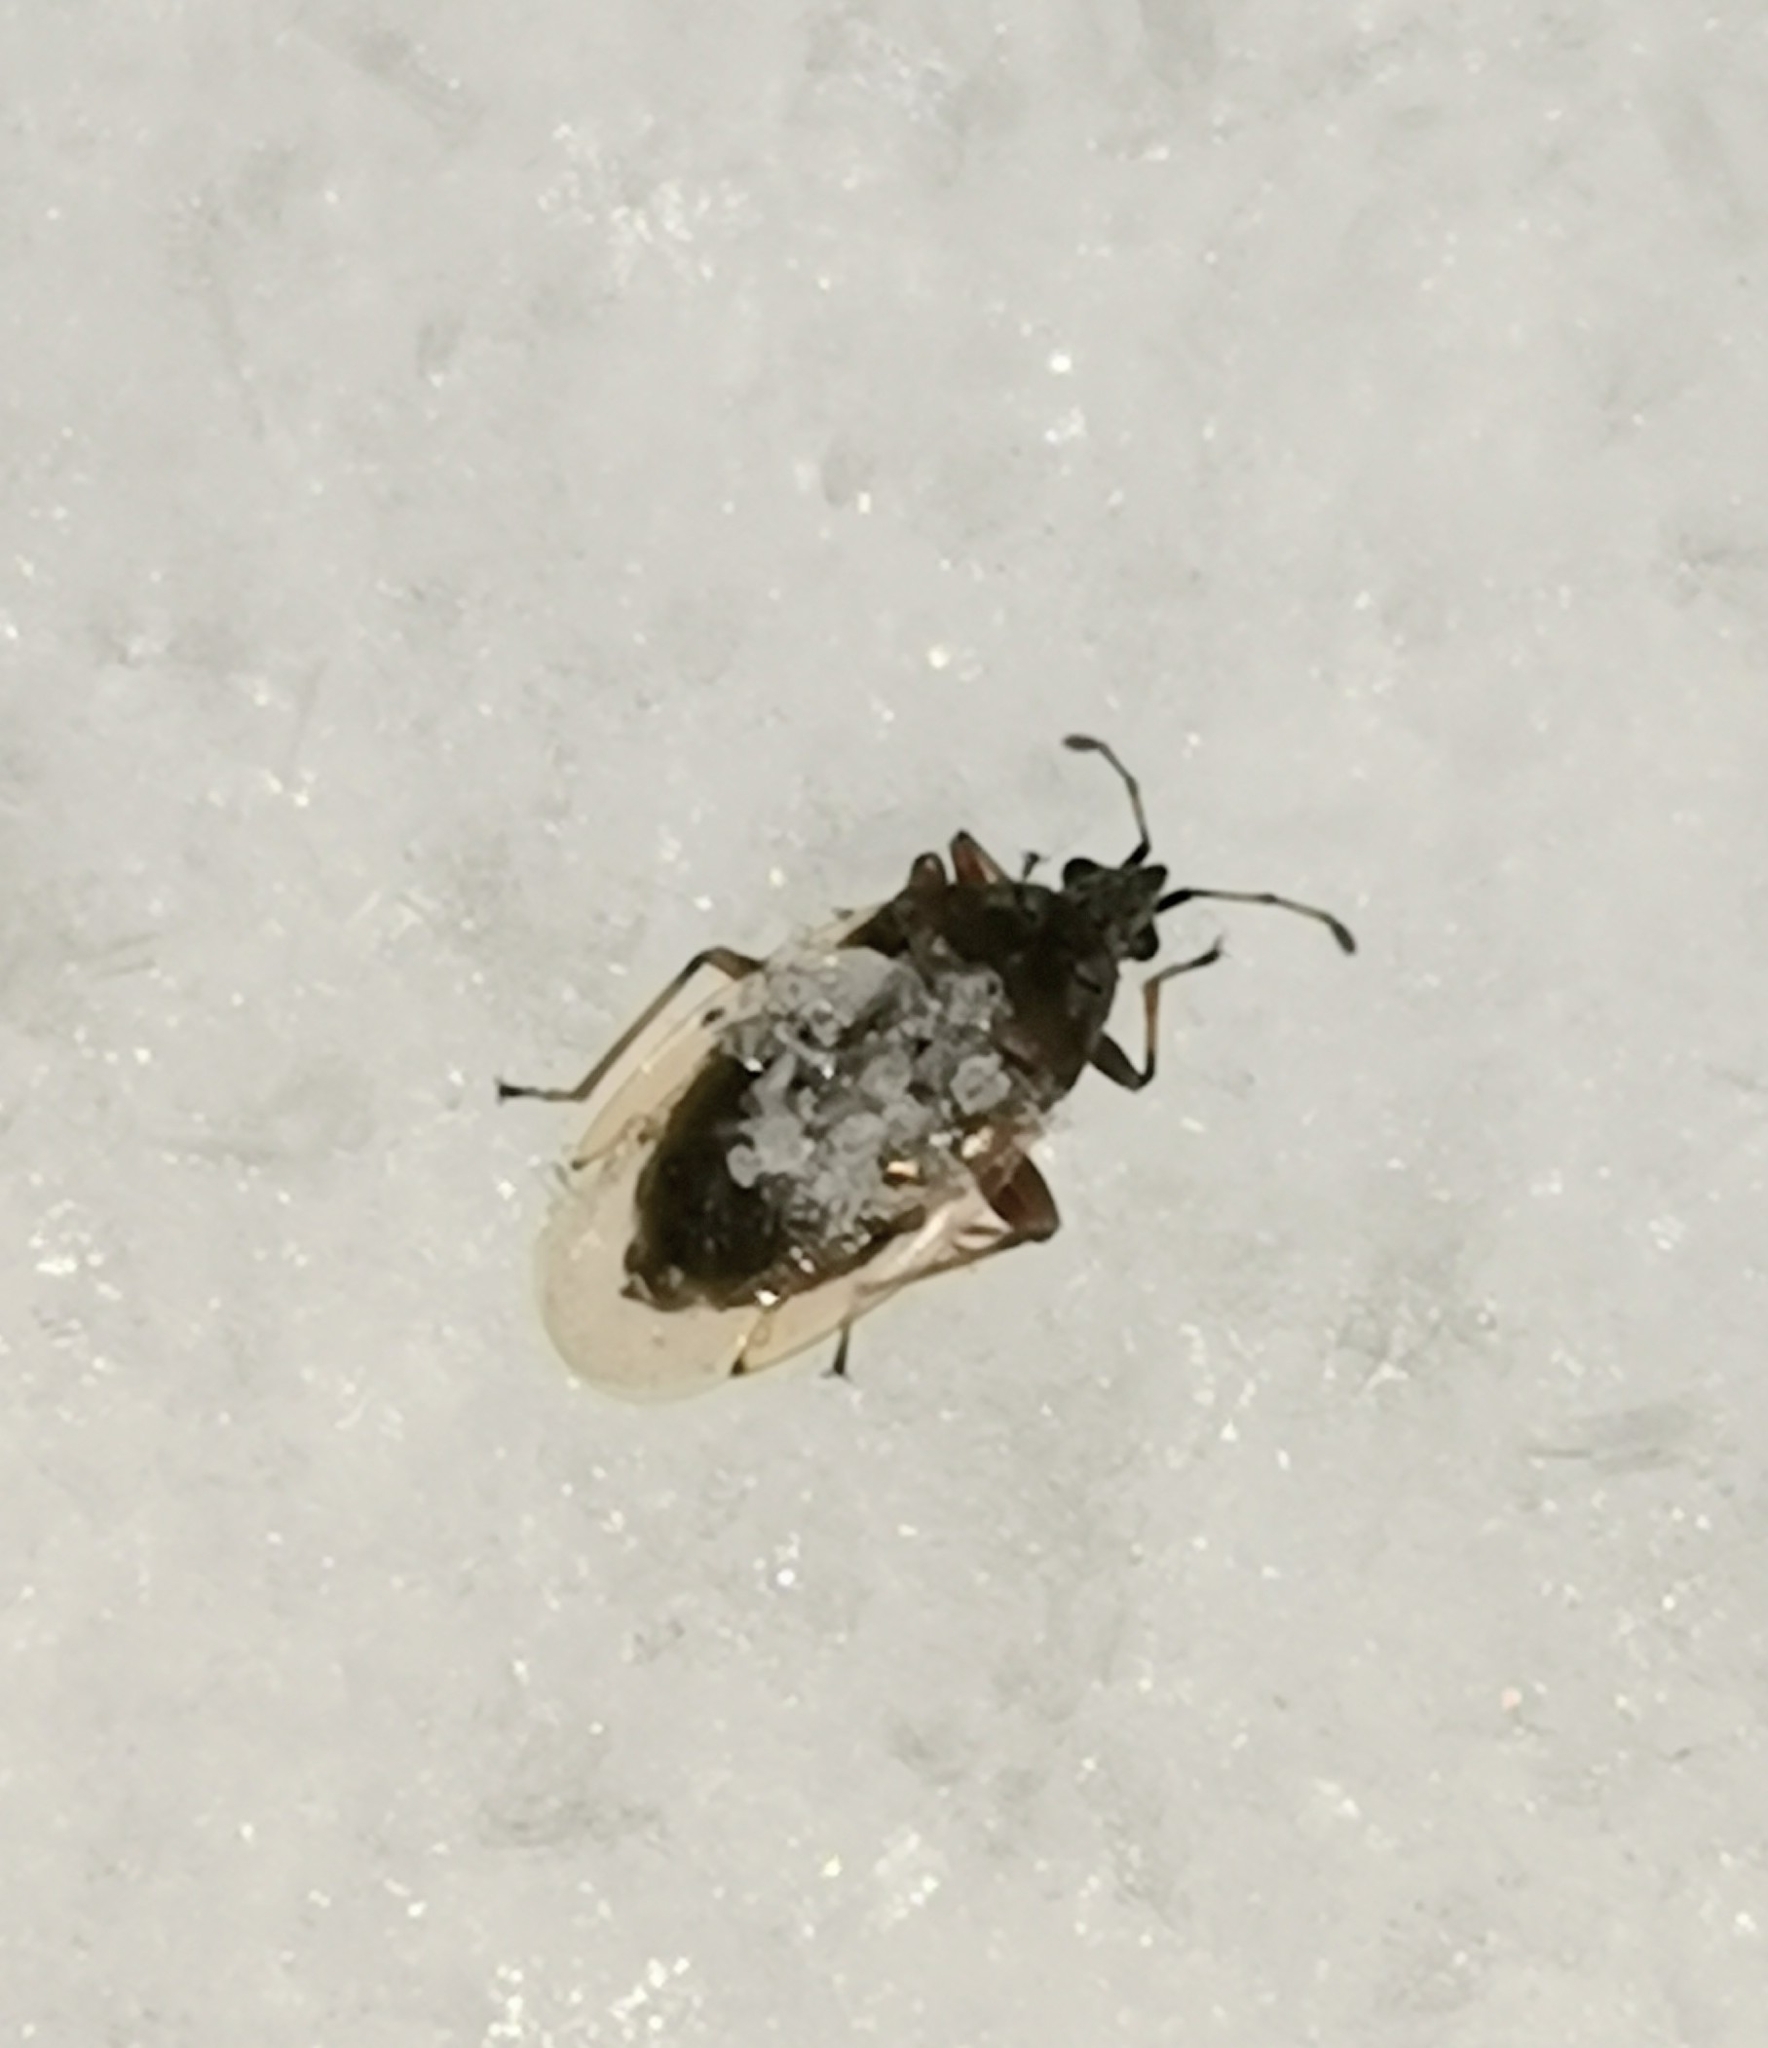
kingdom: Animalia
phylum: Arthropoda
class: Insecta
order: Hemiptera
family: Lygaeidae
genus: Kleidocerys
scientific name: Kleidocerys resedae
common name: Birch catkin bug
